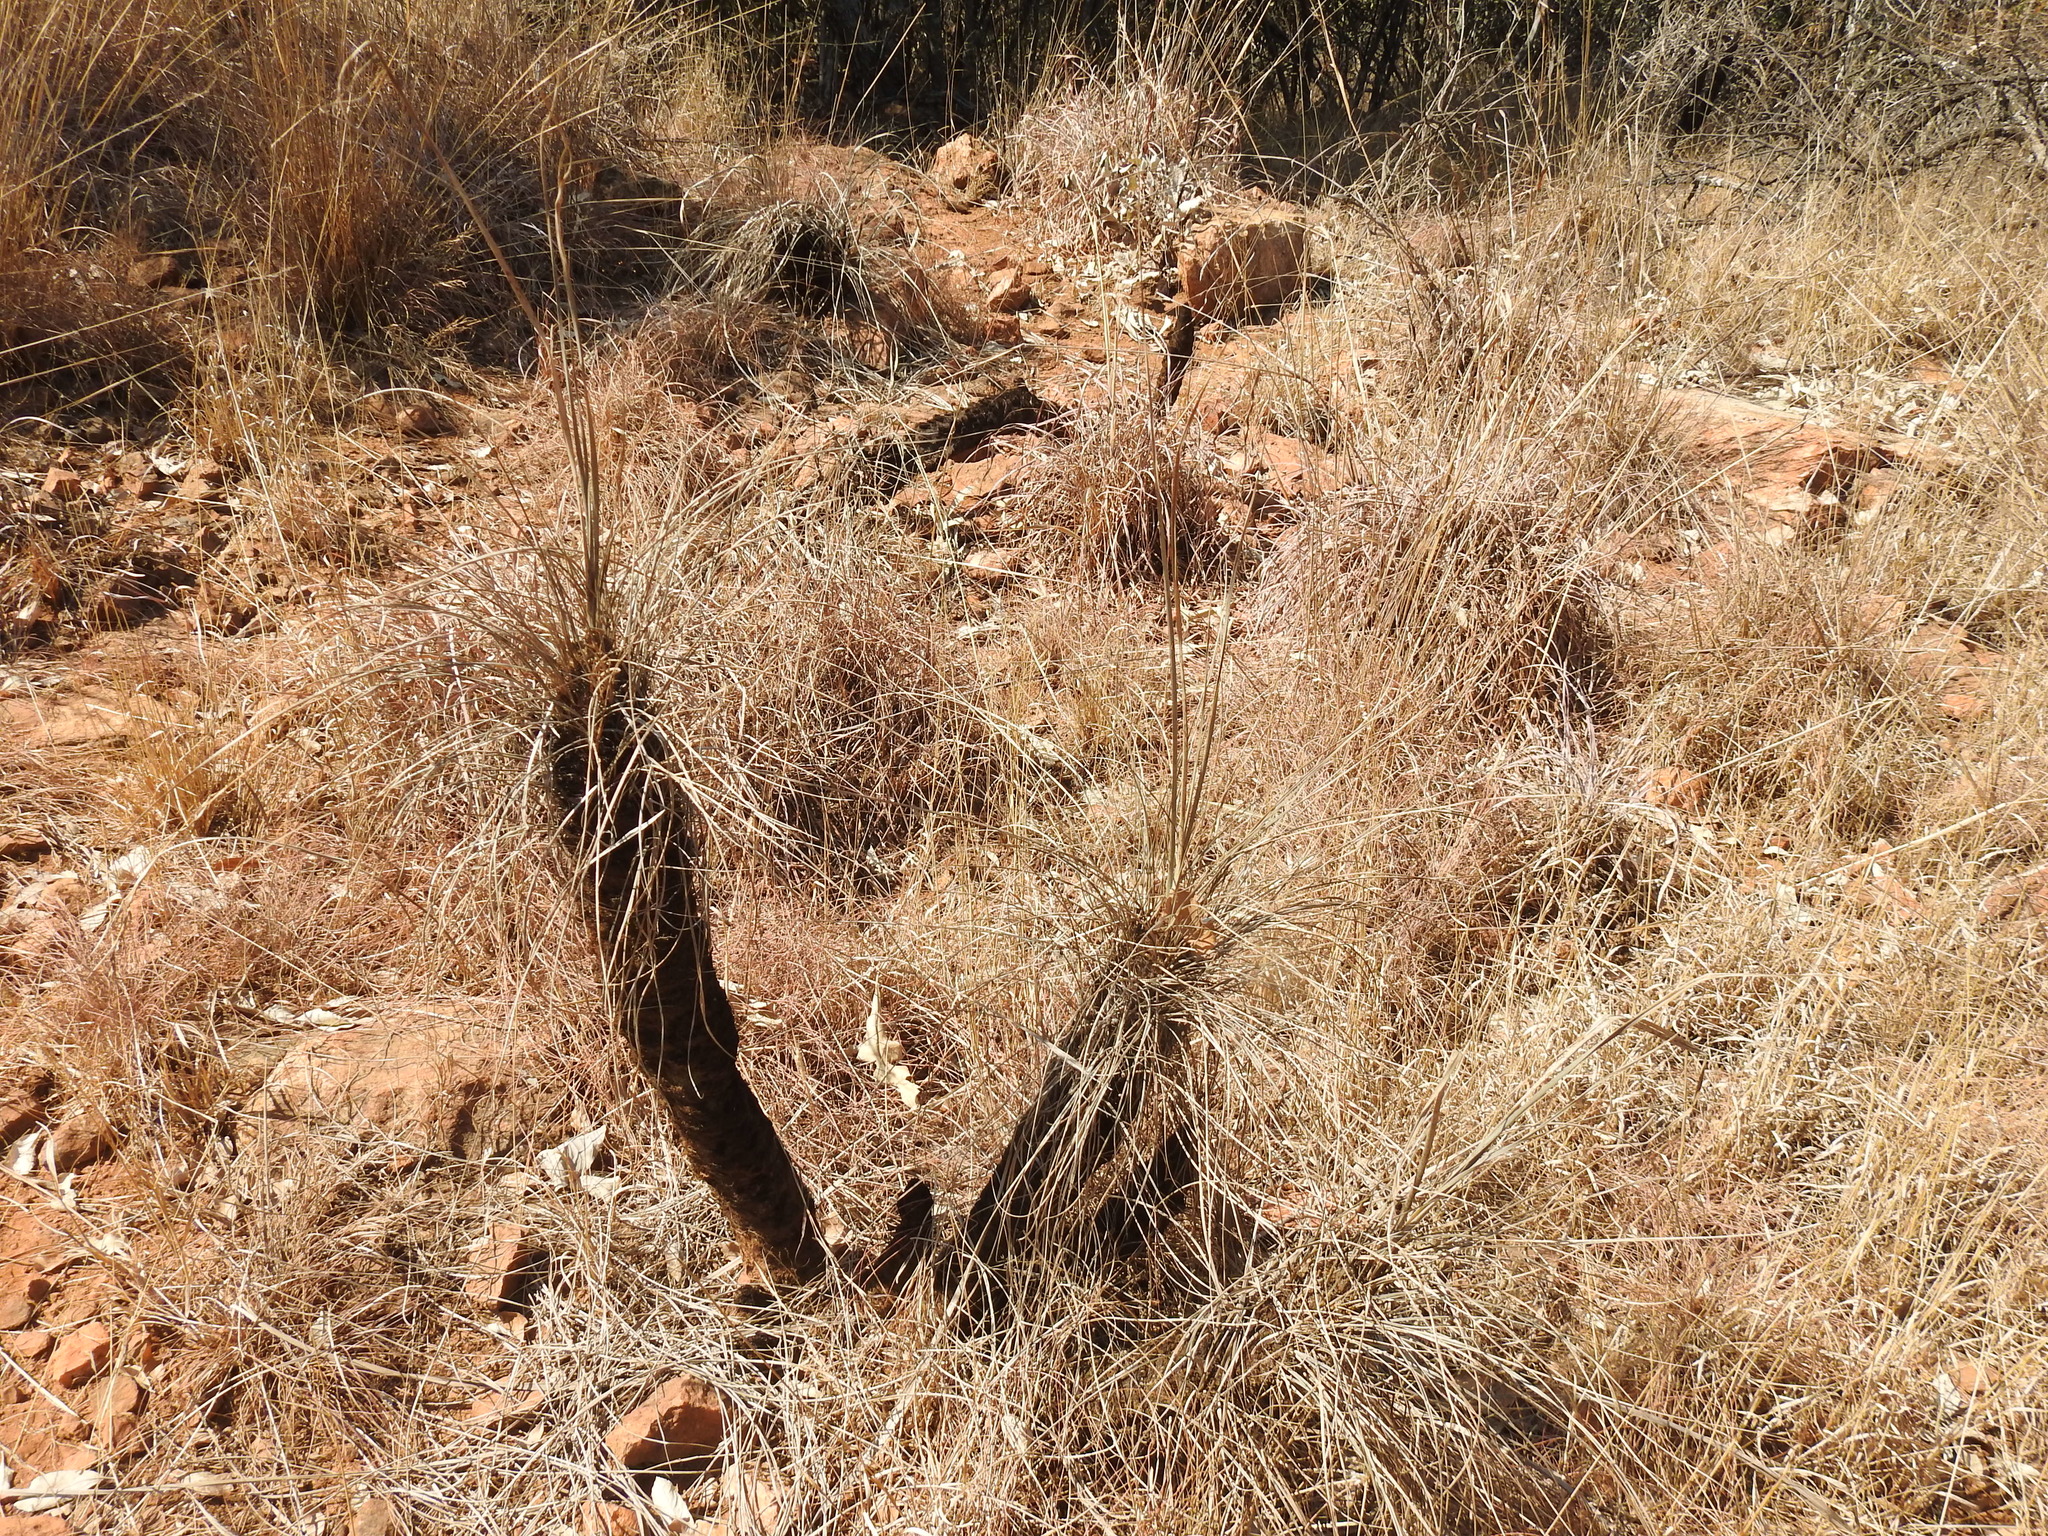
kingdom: Plantae
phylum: Tracheophyta
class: Liliopsida
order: Pandanales
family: Velloziaceae
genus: Xerophyta
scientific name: Xerophyta retinervis
